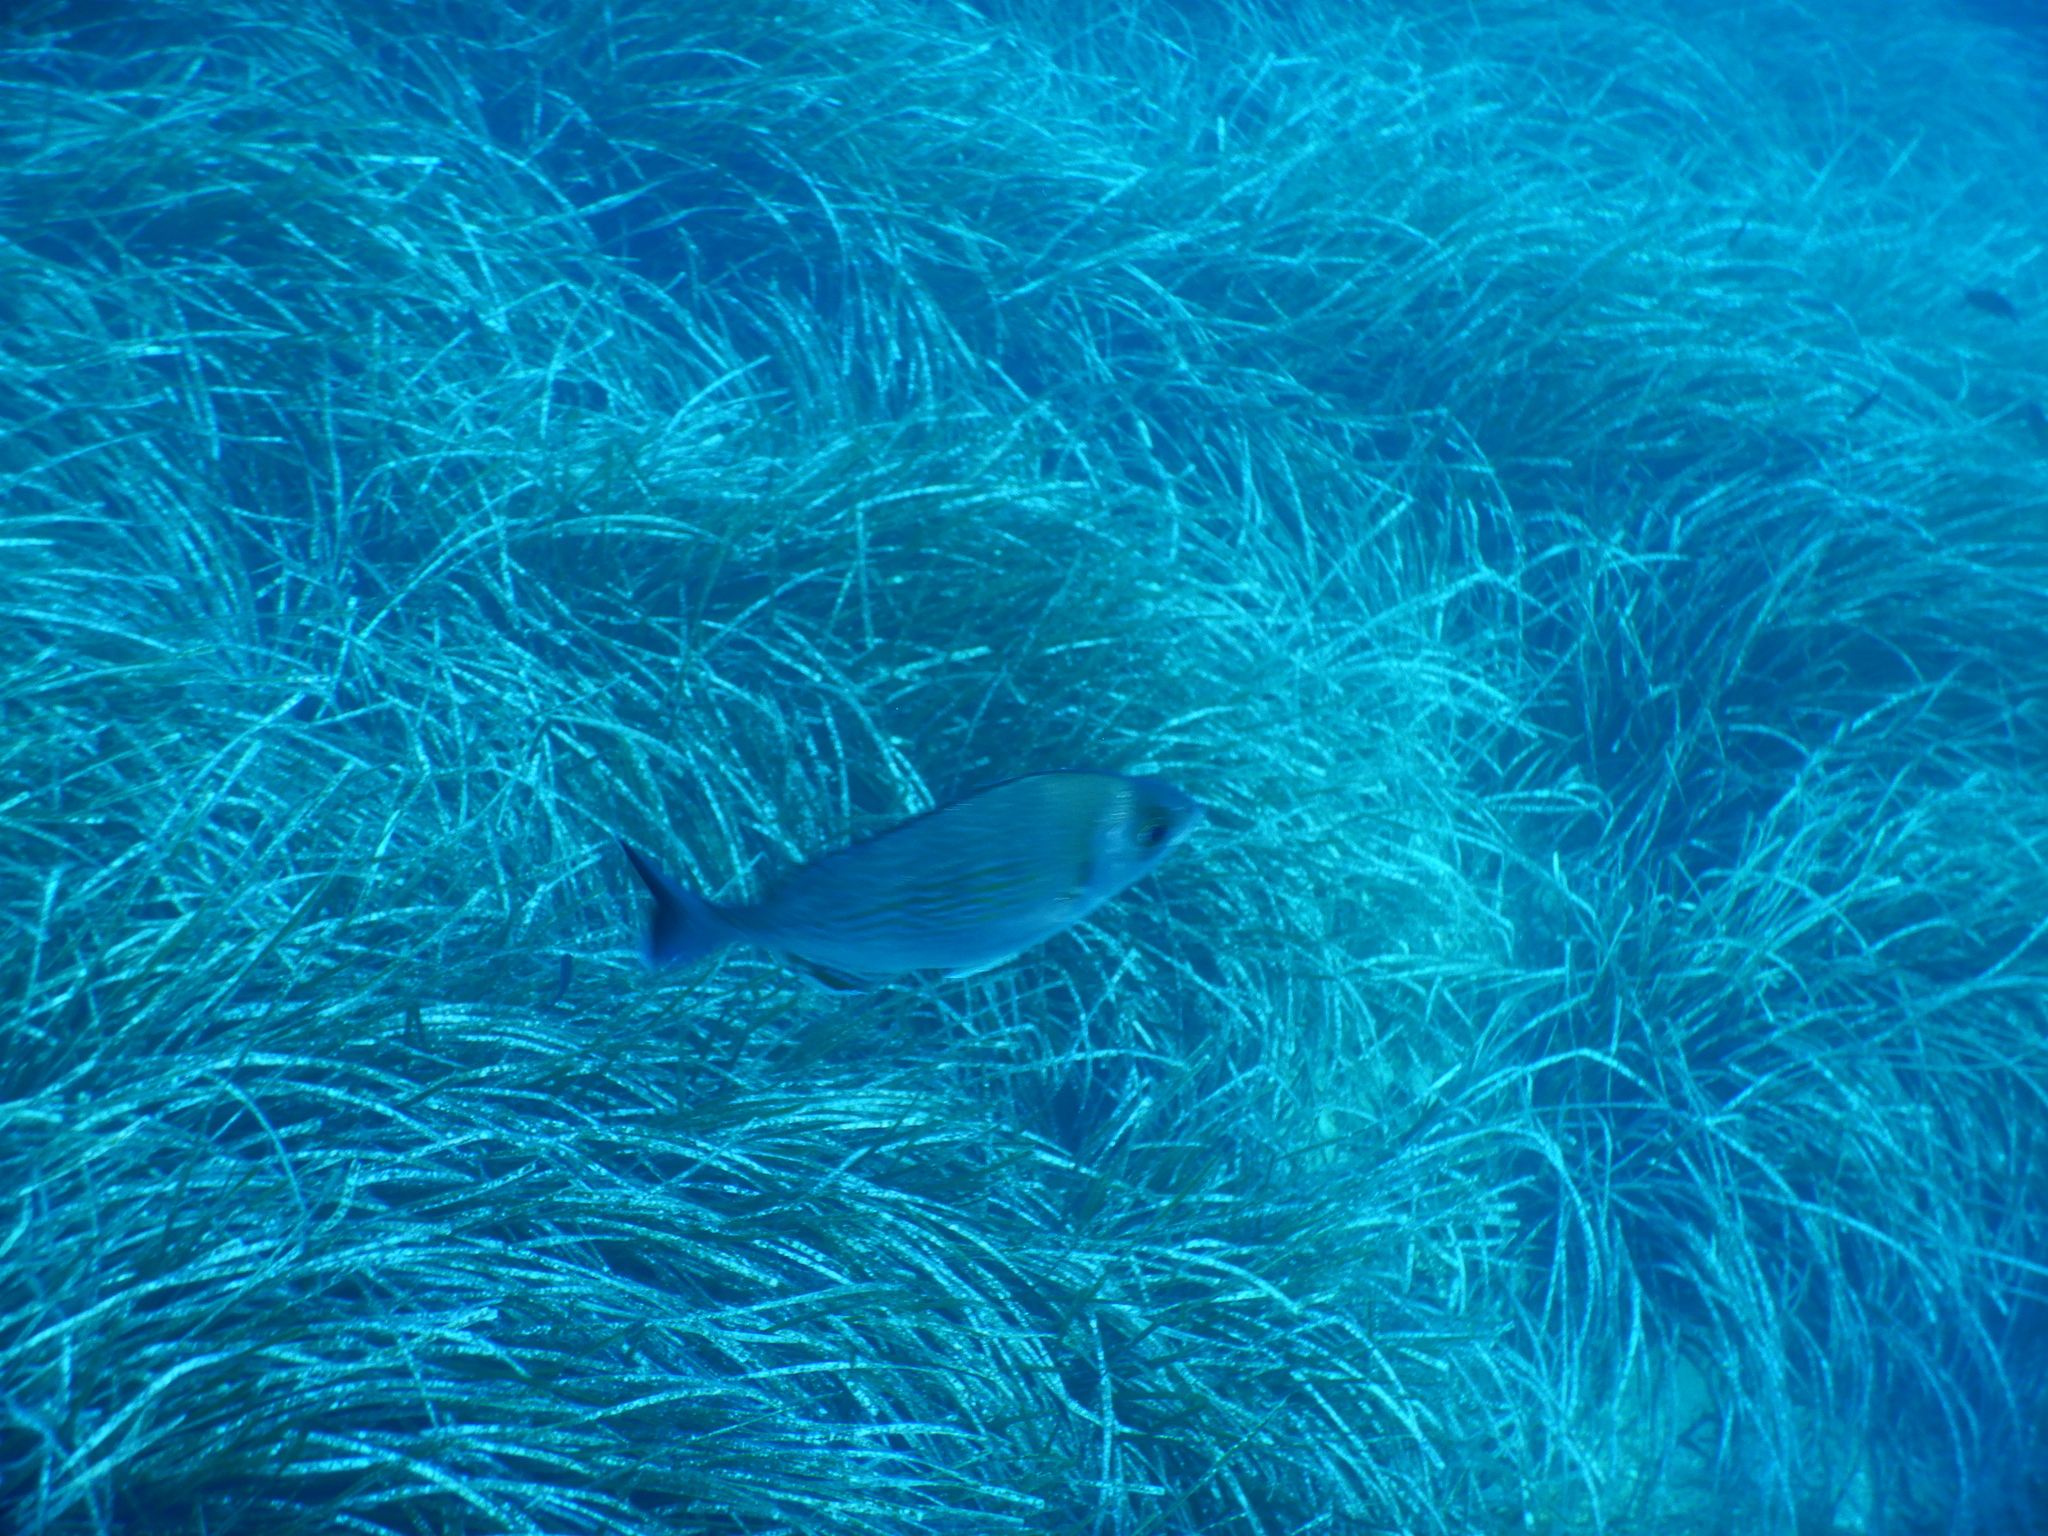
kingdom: Animalia
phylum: Chordata
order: Perciformes
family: Sparidae
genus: Spondyliosoma
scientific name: Spondyliosoma cantharus
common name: Black seabream
